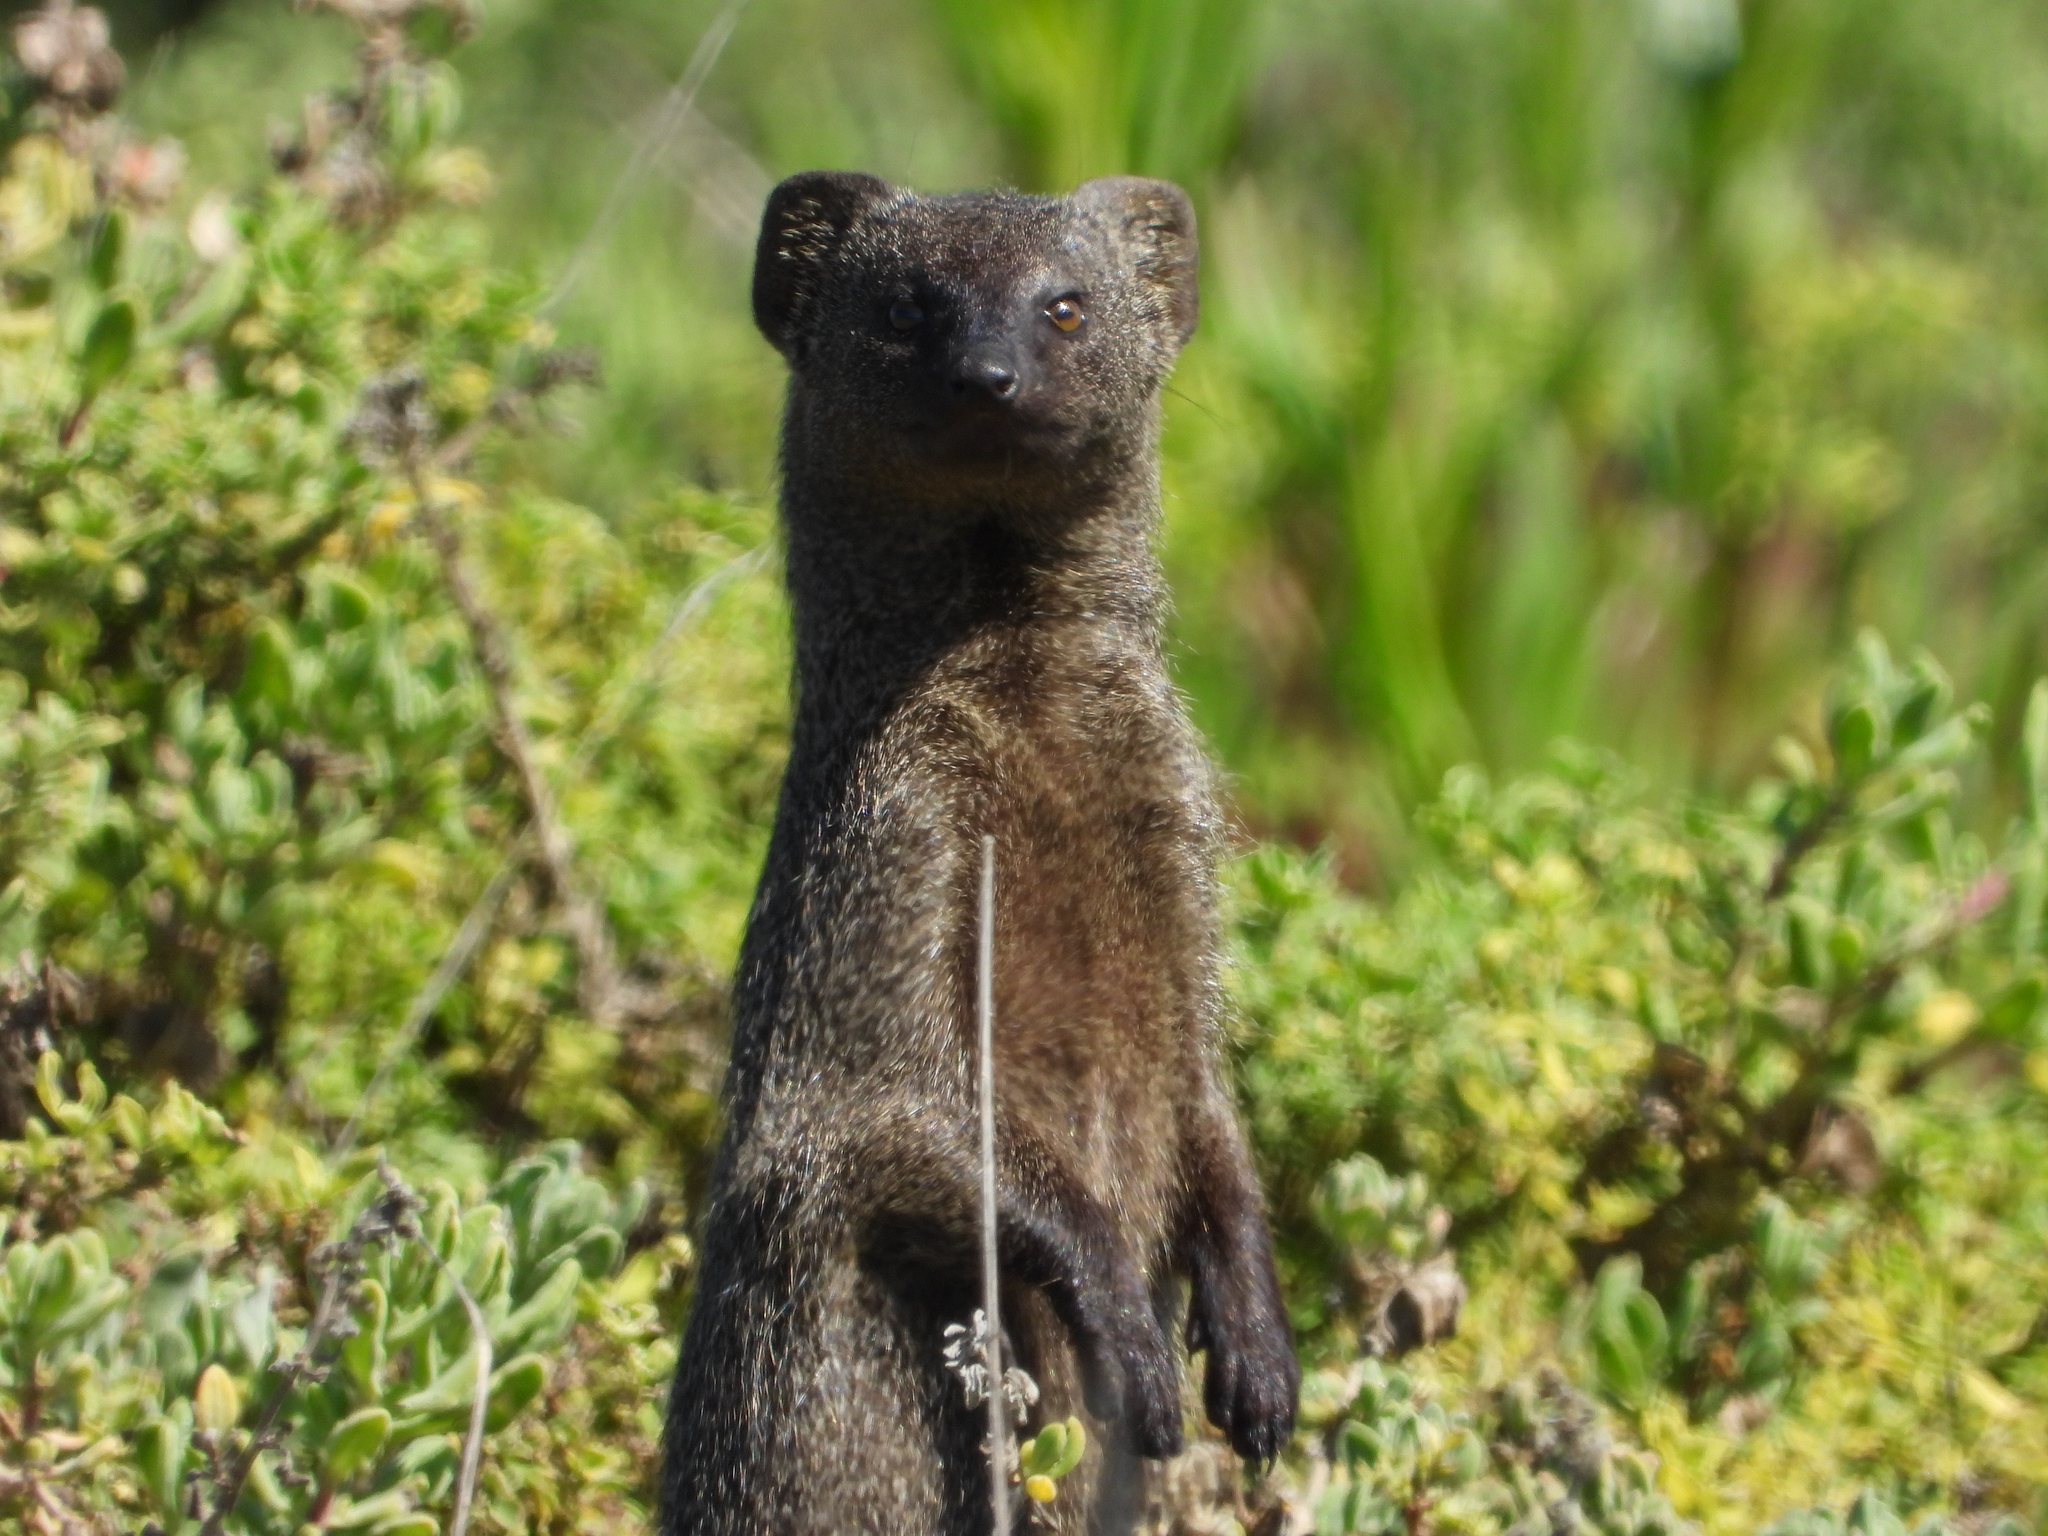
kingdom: Animalia
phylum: Chordata
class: Mammalia
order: Carnivora
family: Herpestidae
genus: Galerella
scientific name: Galerella pulverulenta
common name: Cape gray mongoose
